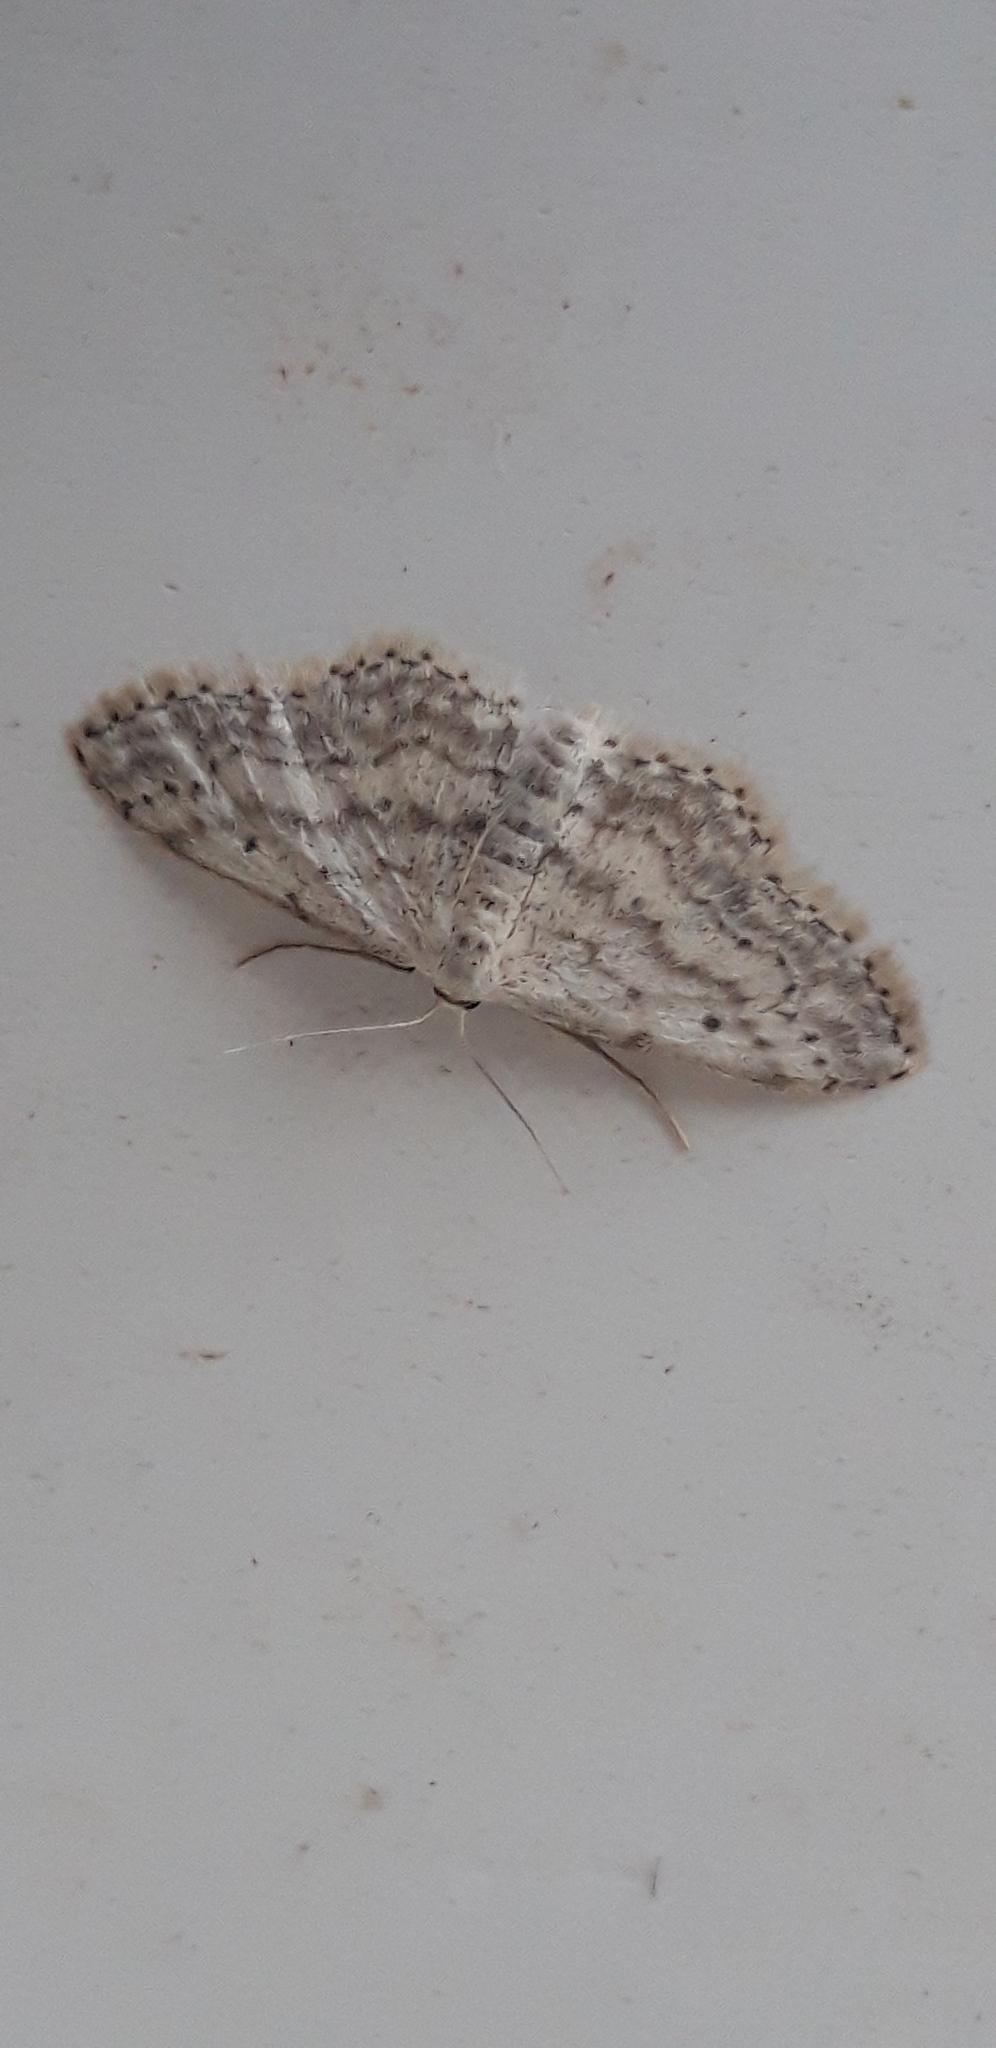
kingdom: Animalia
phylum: Arthropoda
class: Insecta
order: Lepidoptera
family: Geometridae
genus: Idaea
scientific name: Idaea seriata
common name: Small dusty wave
